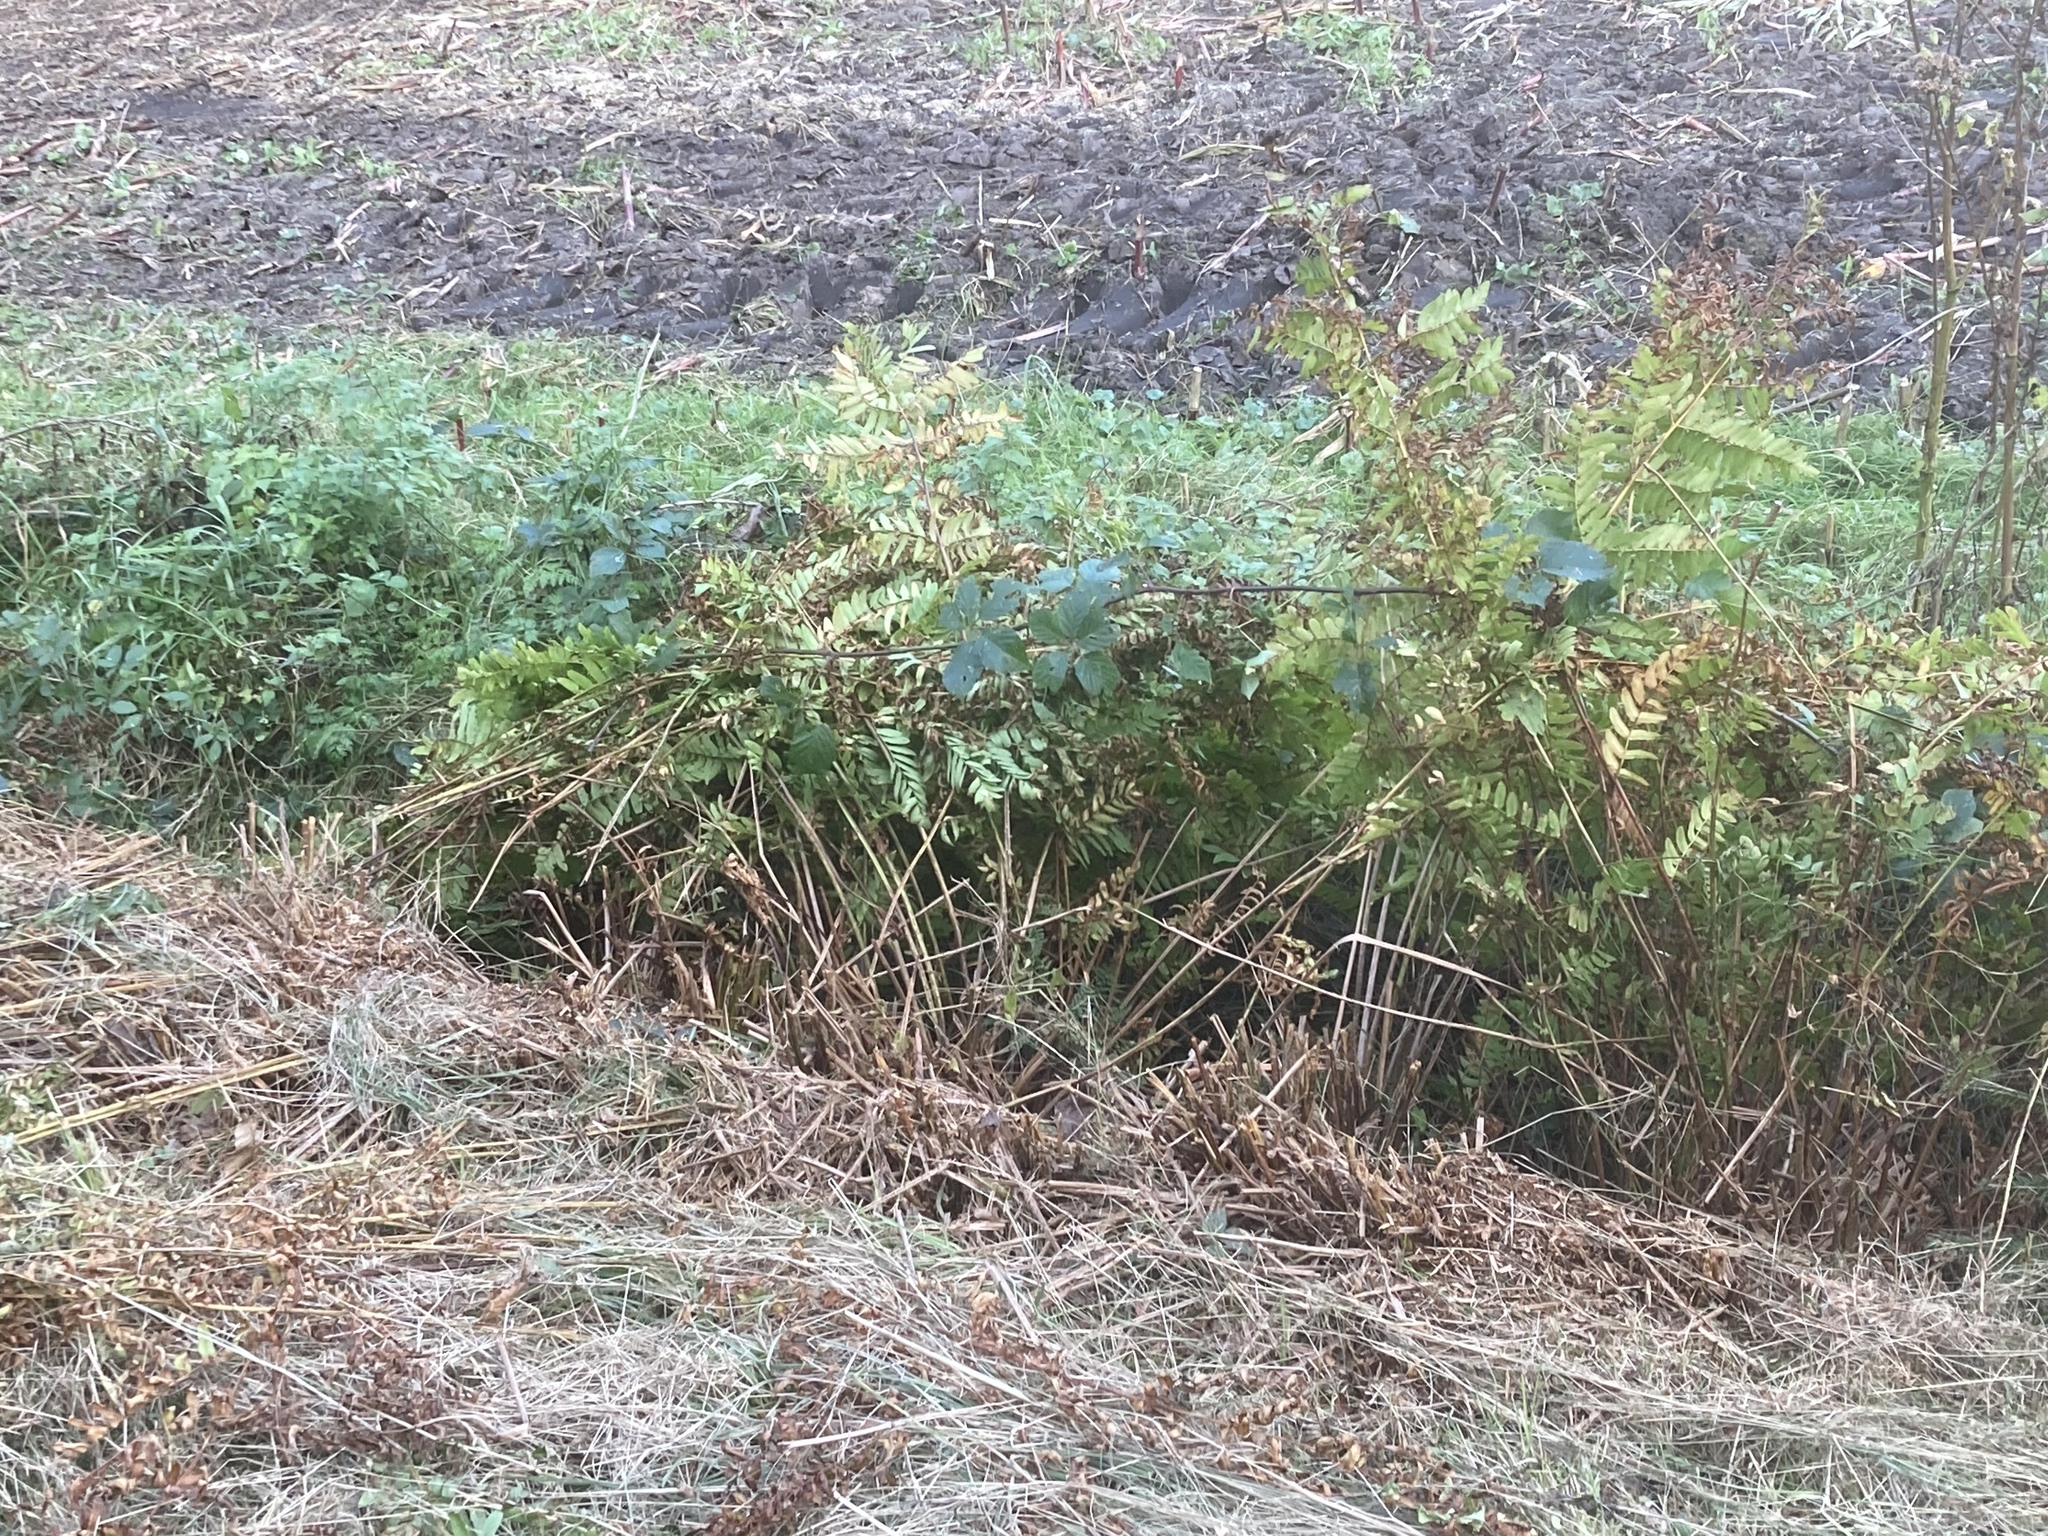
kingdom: Plantae
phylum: Tracheophyta
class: Polypodiopsida
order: Osmundales
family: Osmundaceae
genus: Osmunda
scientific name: Osmunda regalis
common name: Royal fern
